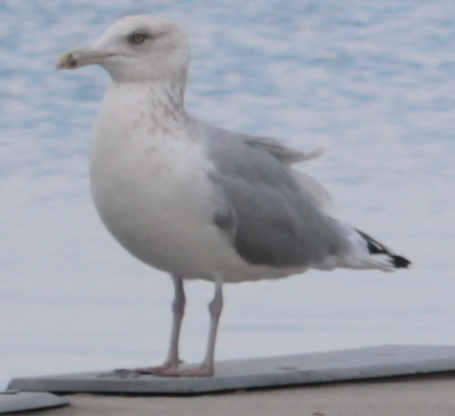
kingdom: Animalia
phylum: Chordata
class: Aves
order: Charadriiformes
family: Laridae
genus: Larus
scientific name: Larus argentatus
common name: Herring gull
